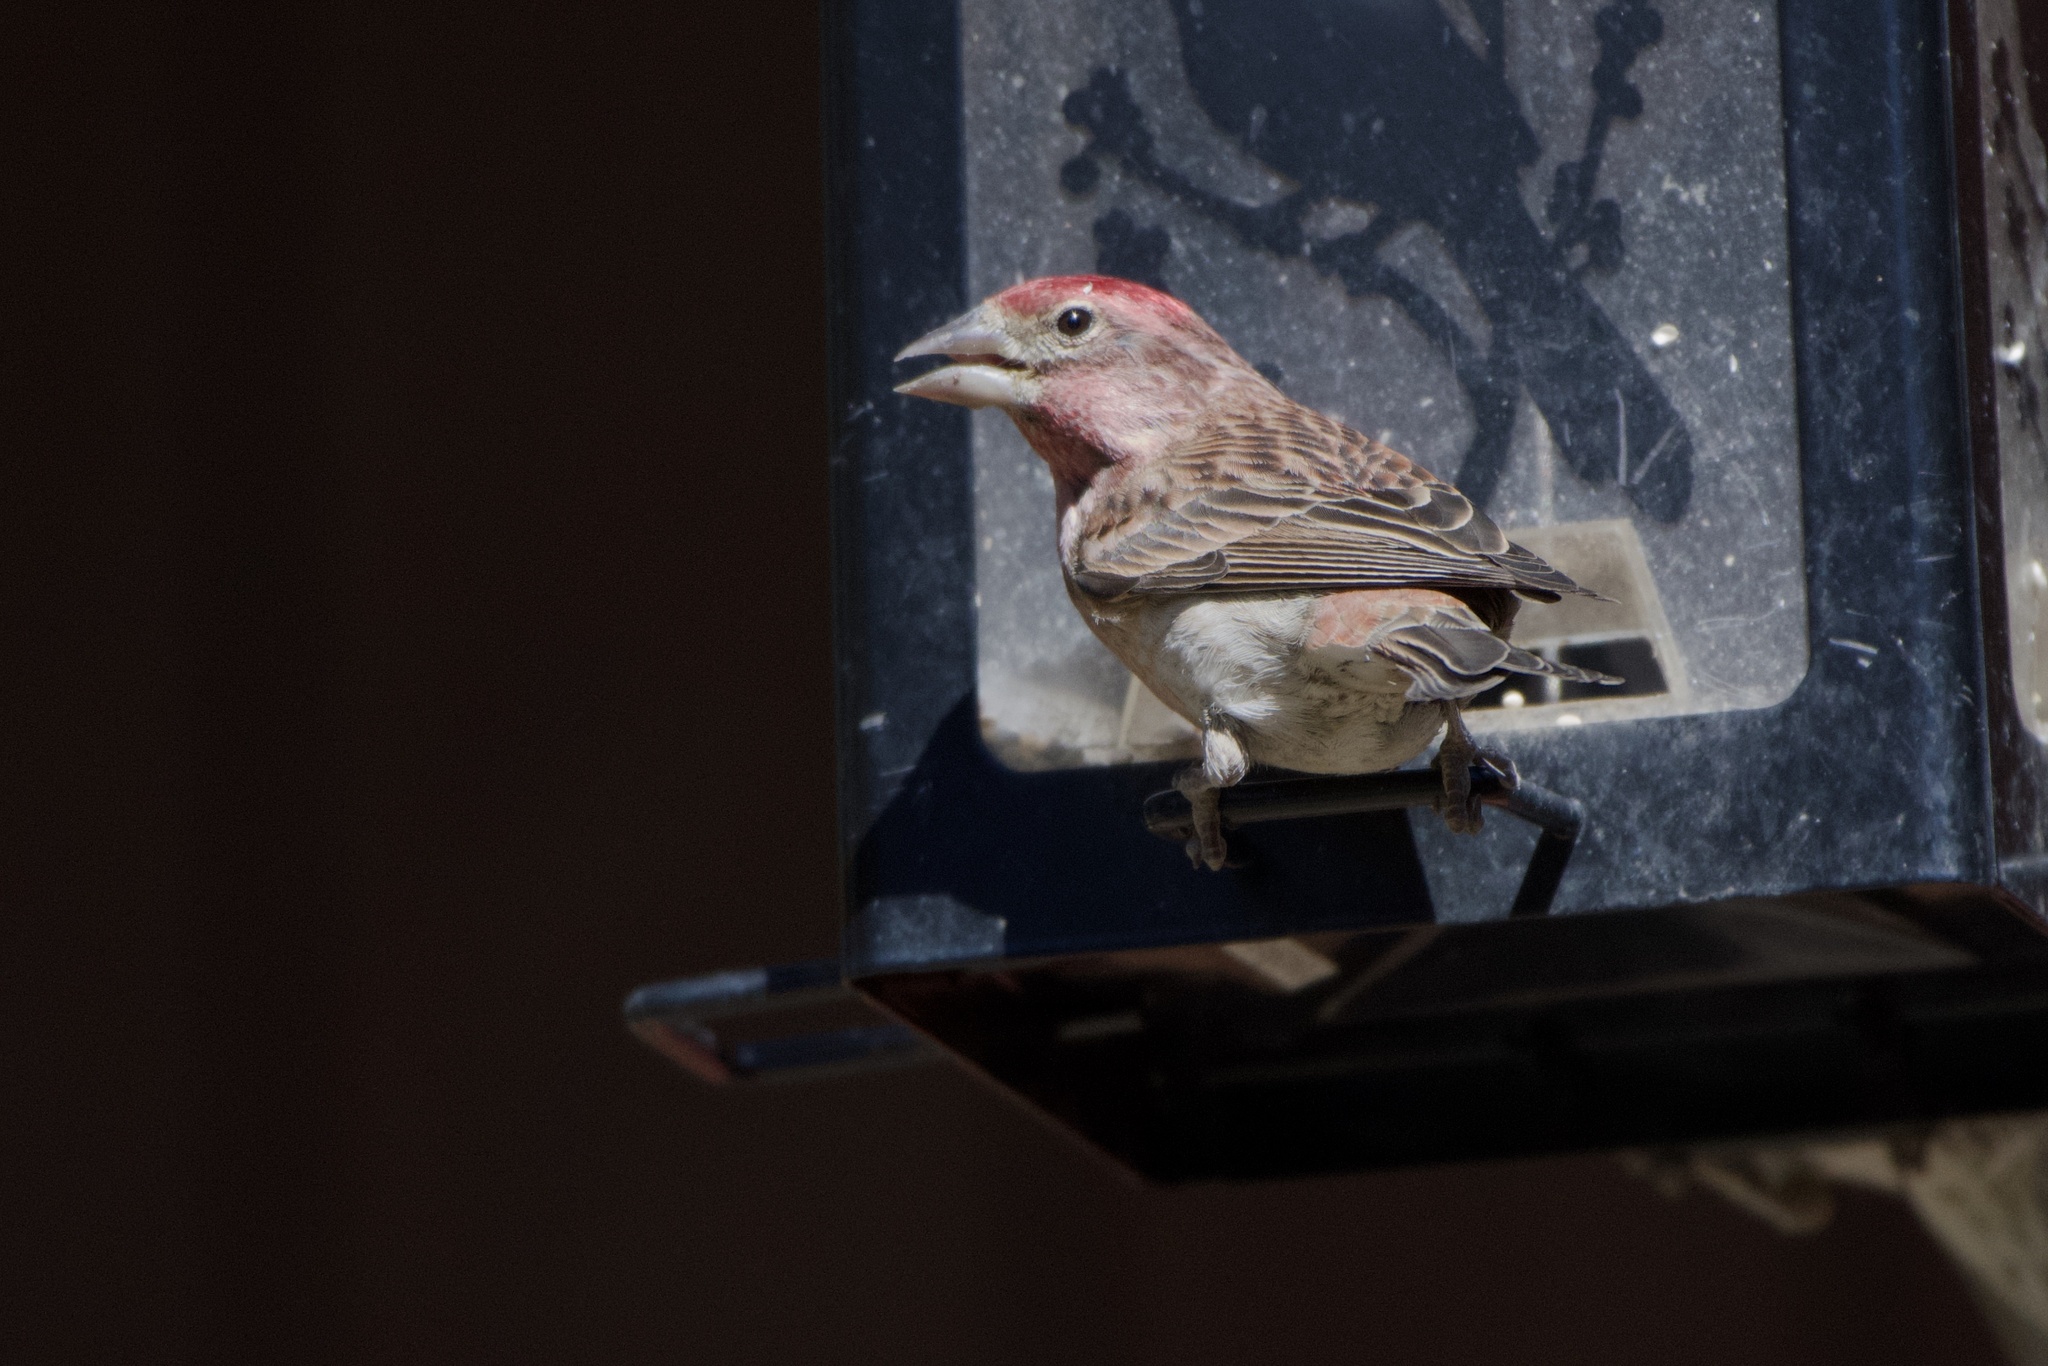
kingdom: Animalia
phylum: Chordata
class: Aves
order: Passeriformes
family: Fringillidae
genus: Haemorhous
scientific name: Haemorhous cassinii
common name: Cassin's finch
